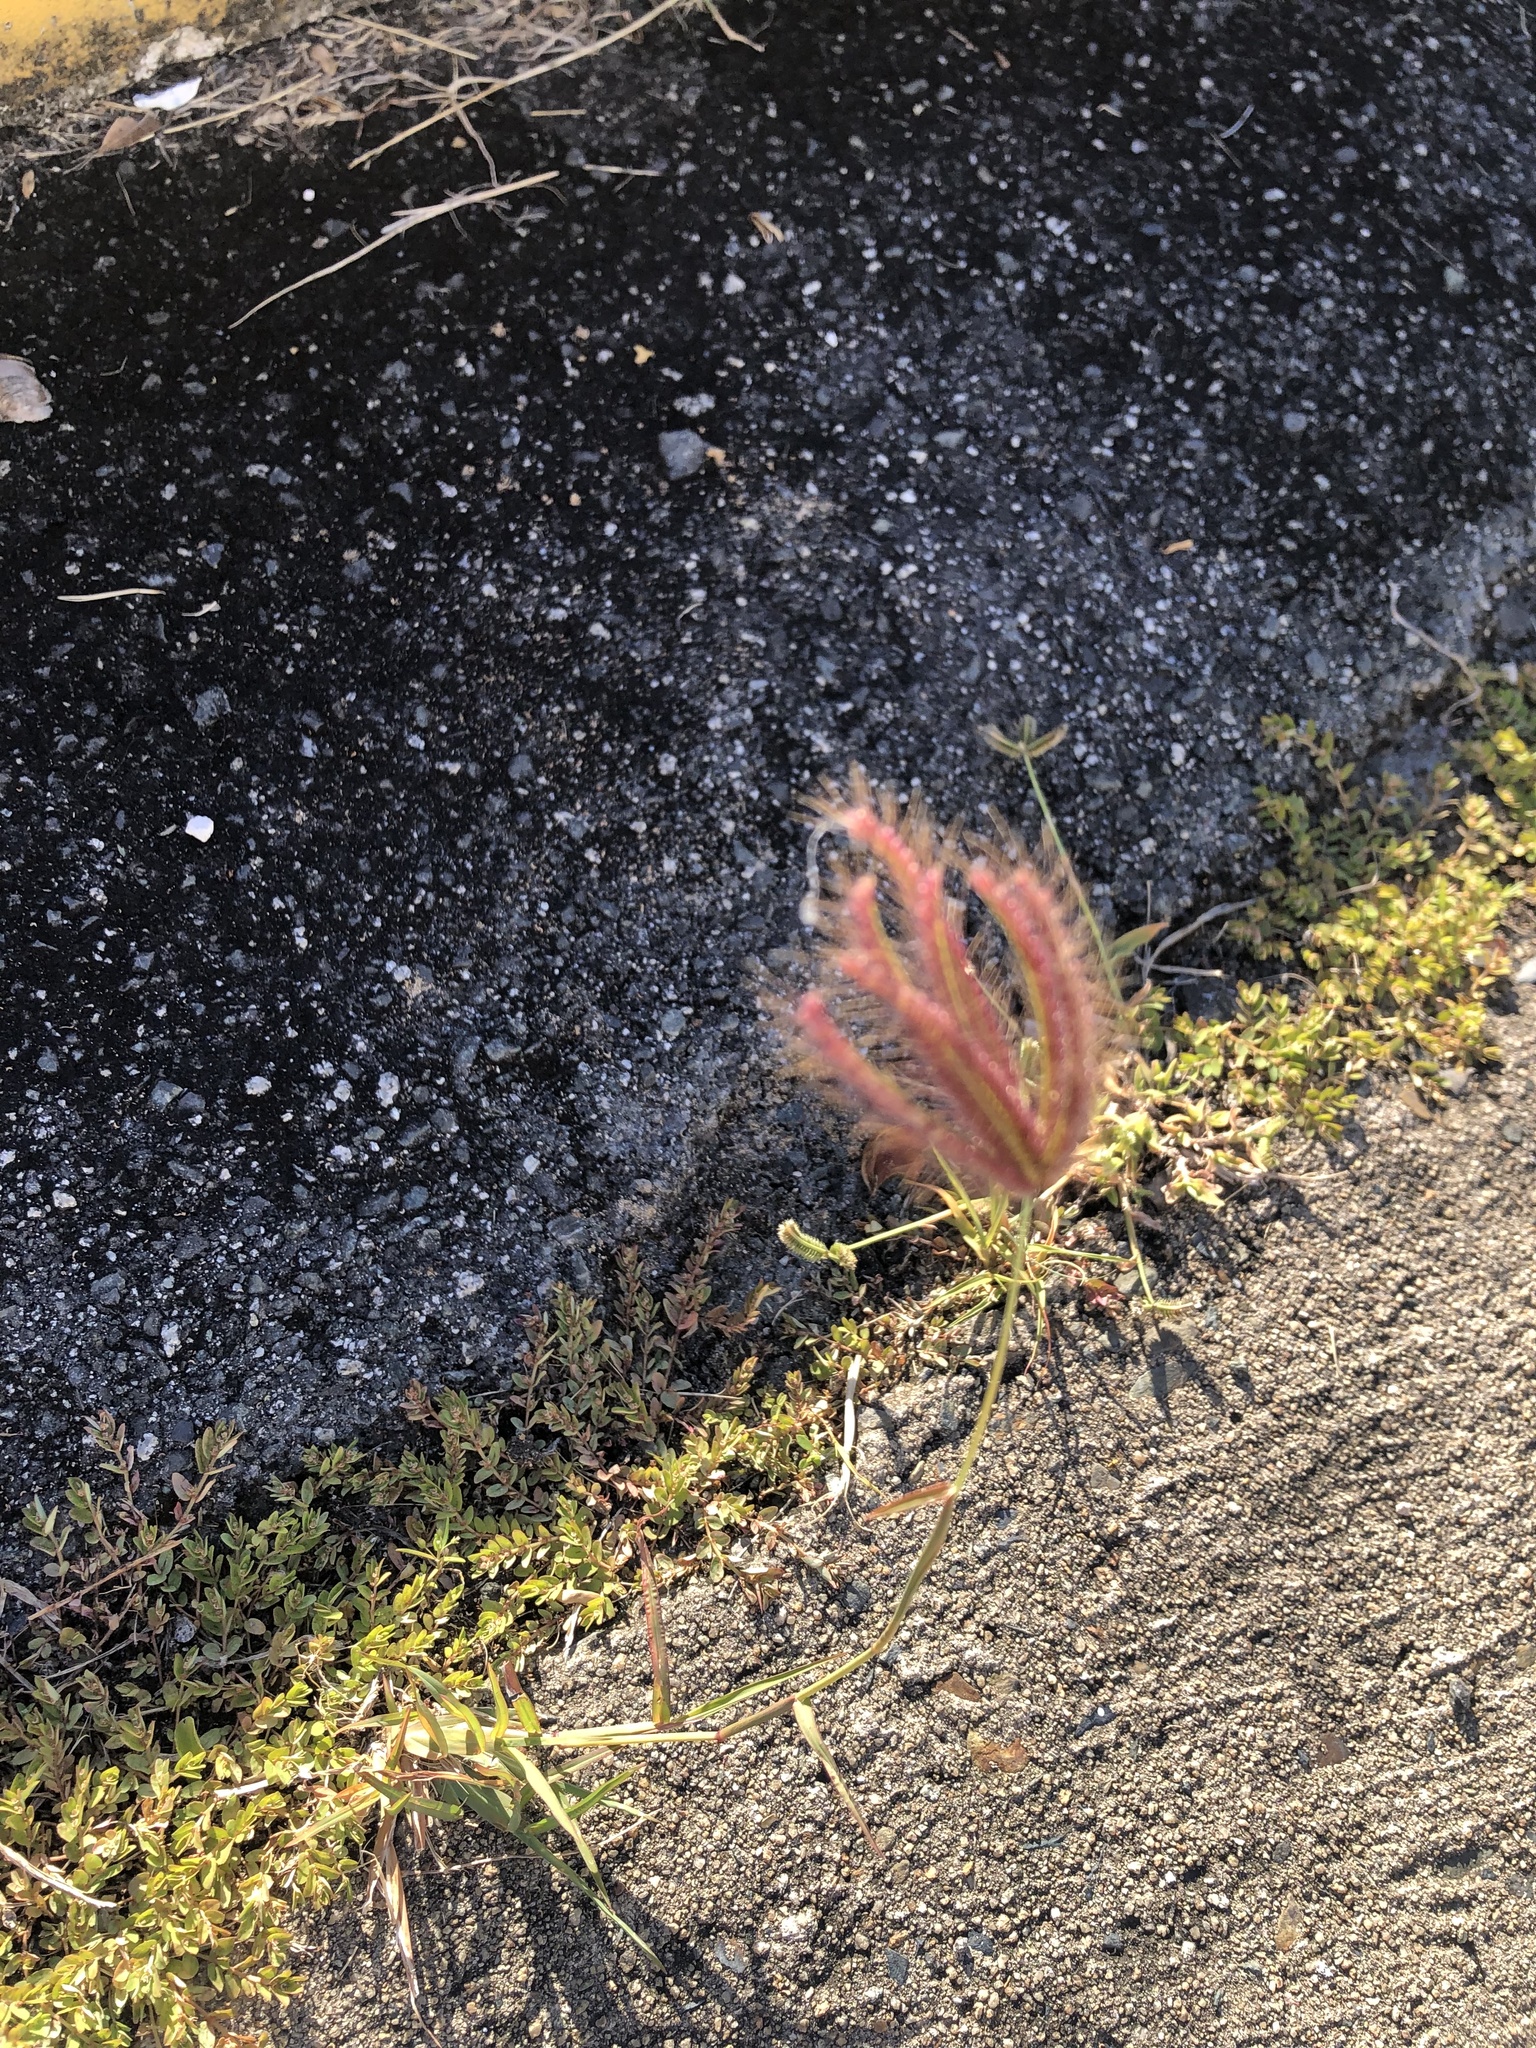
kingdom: Plantae
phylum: Tracheophyta
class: Liliopsida
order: Poales
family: Poaceae
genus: Chloris
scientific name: Chloris barbata
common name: Swollen fingergrass
